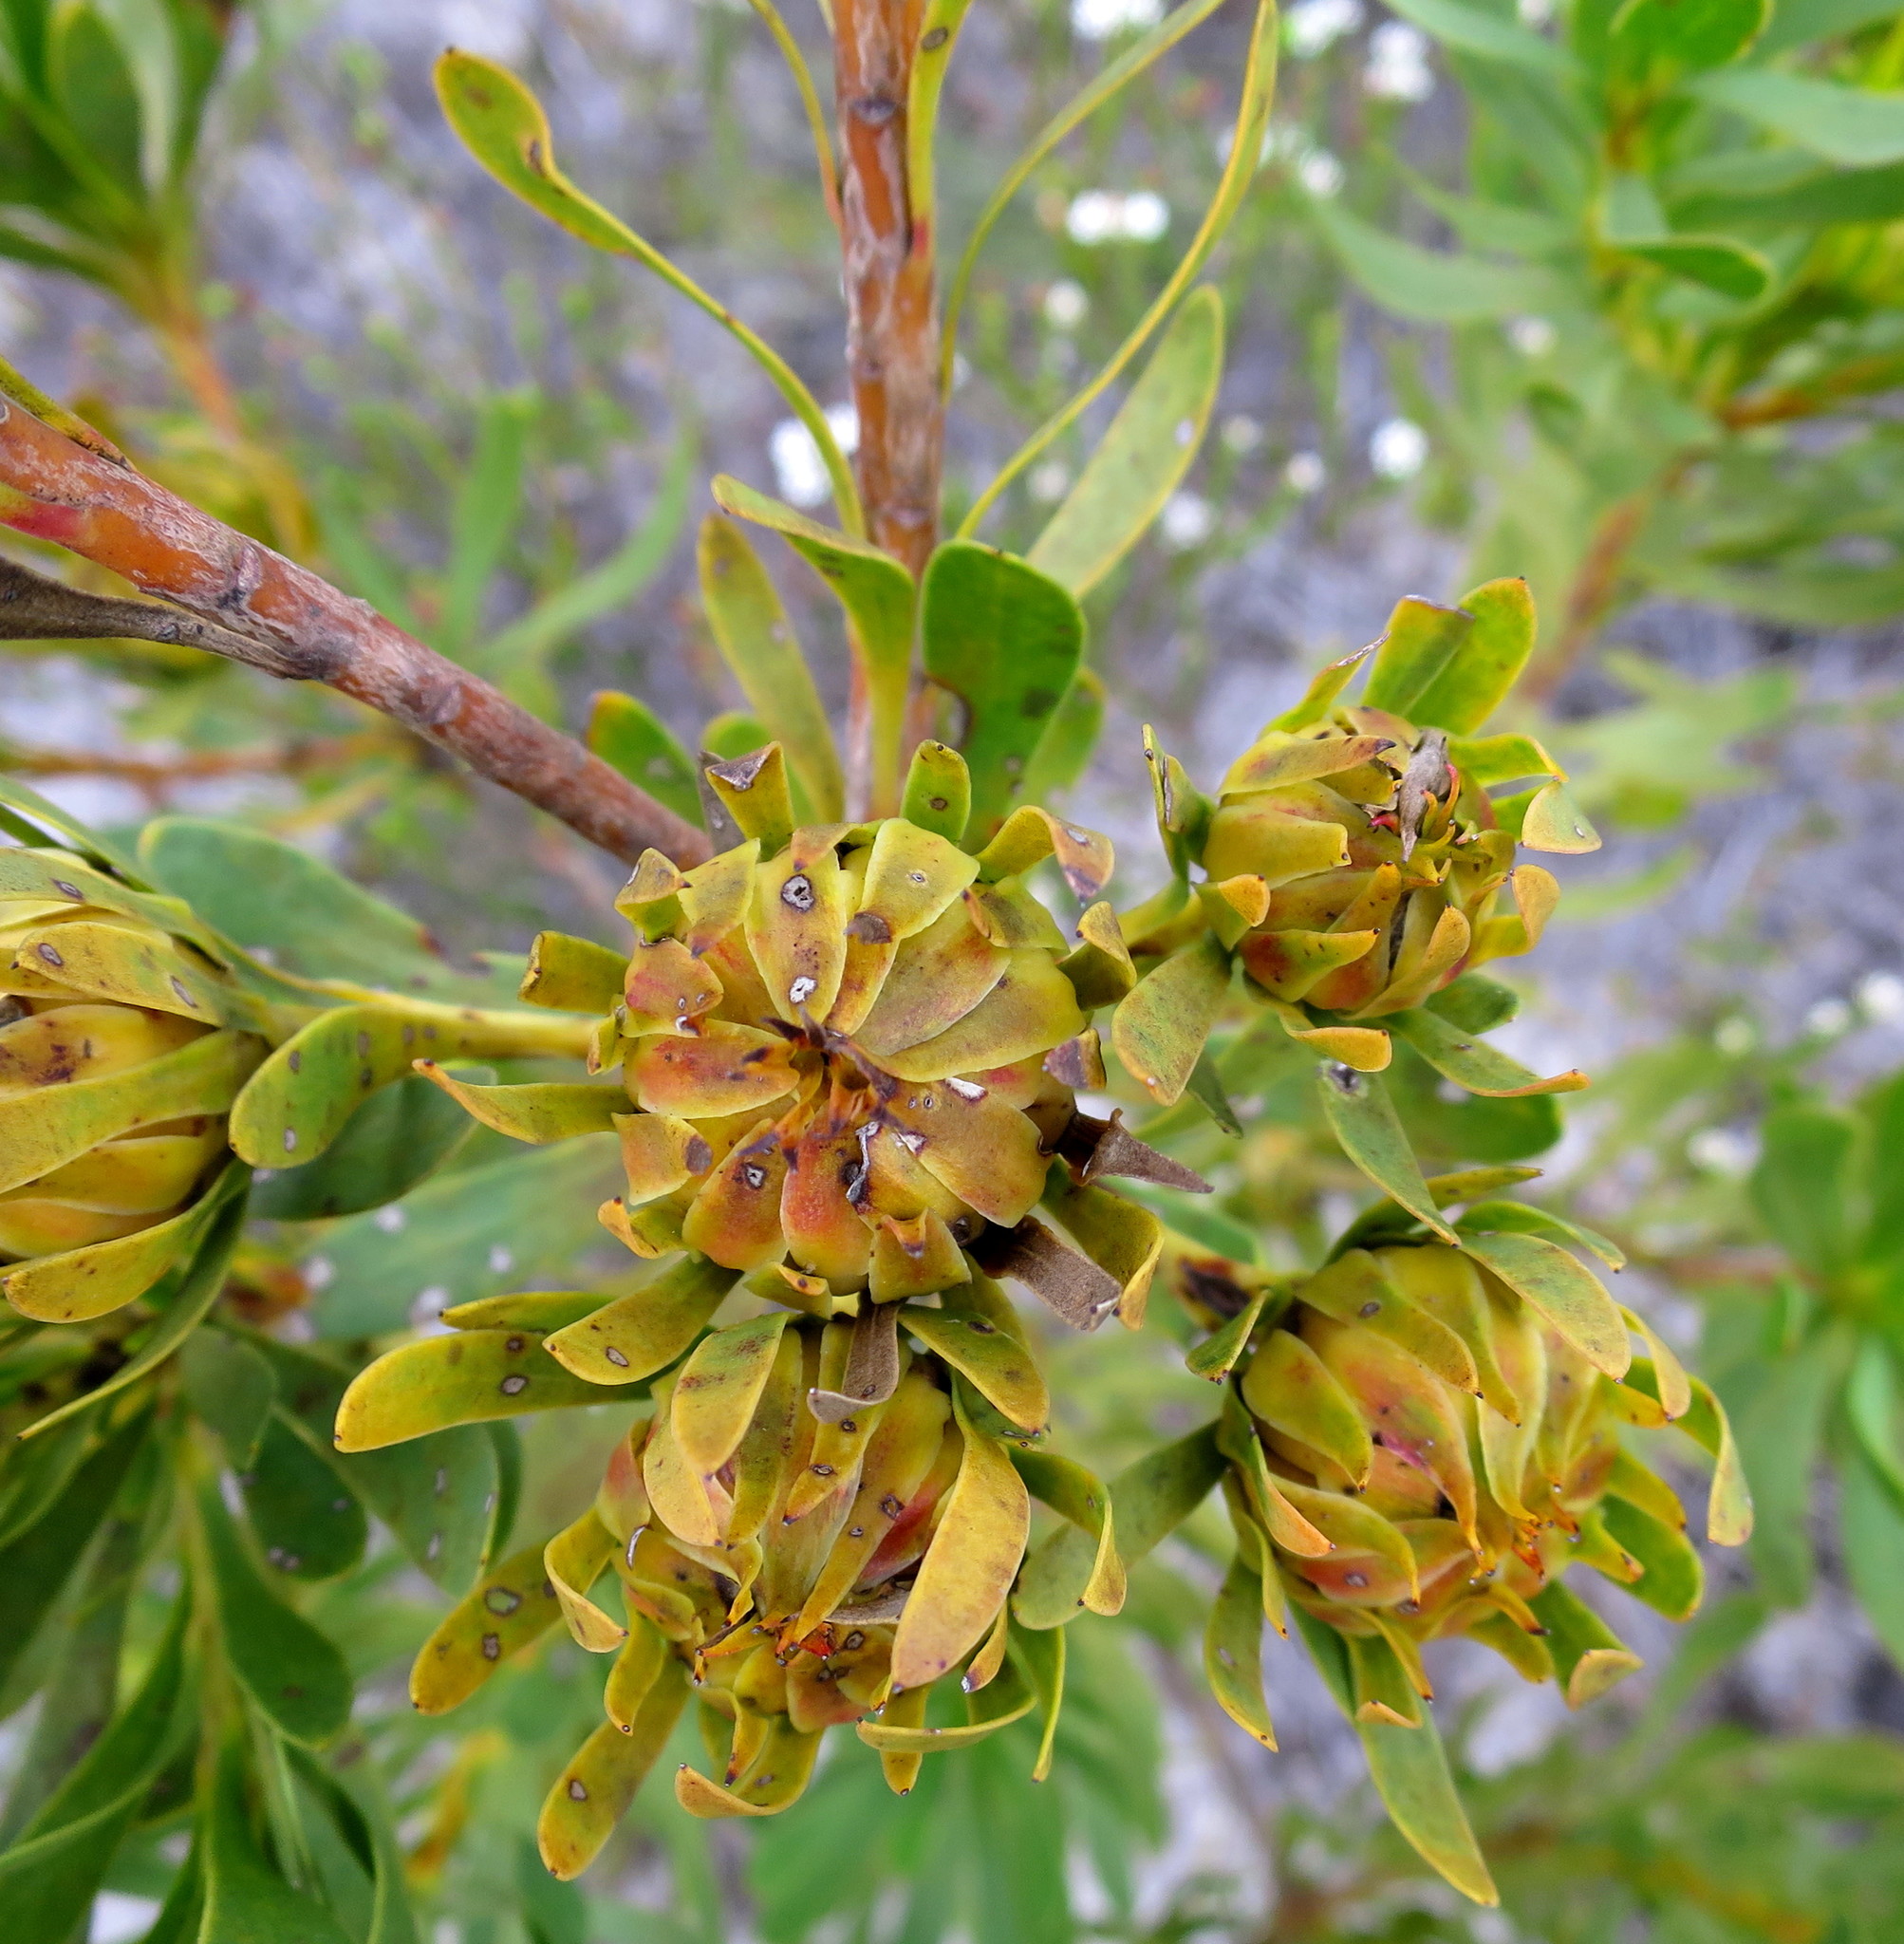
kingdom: Plantae
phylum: Tracheophyta
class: Magnoliopsida
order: Proteales
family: Proteaceae
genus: Aulax
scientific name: Aulax umbellata
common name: Broad-leaf featherbush
